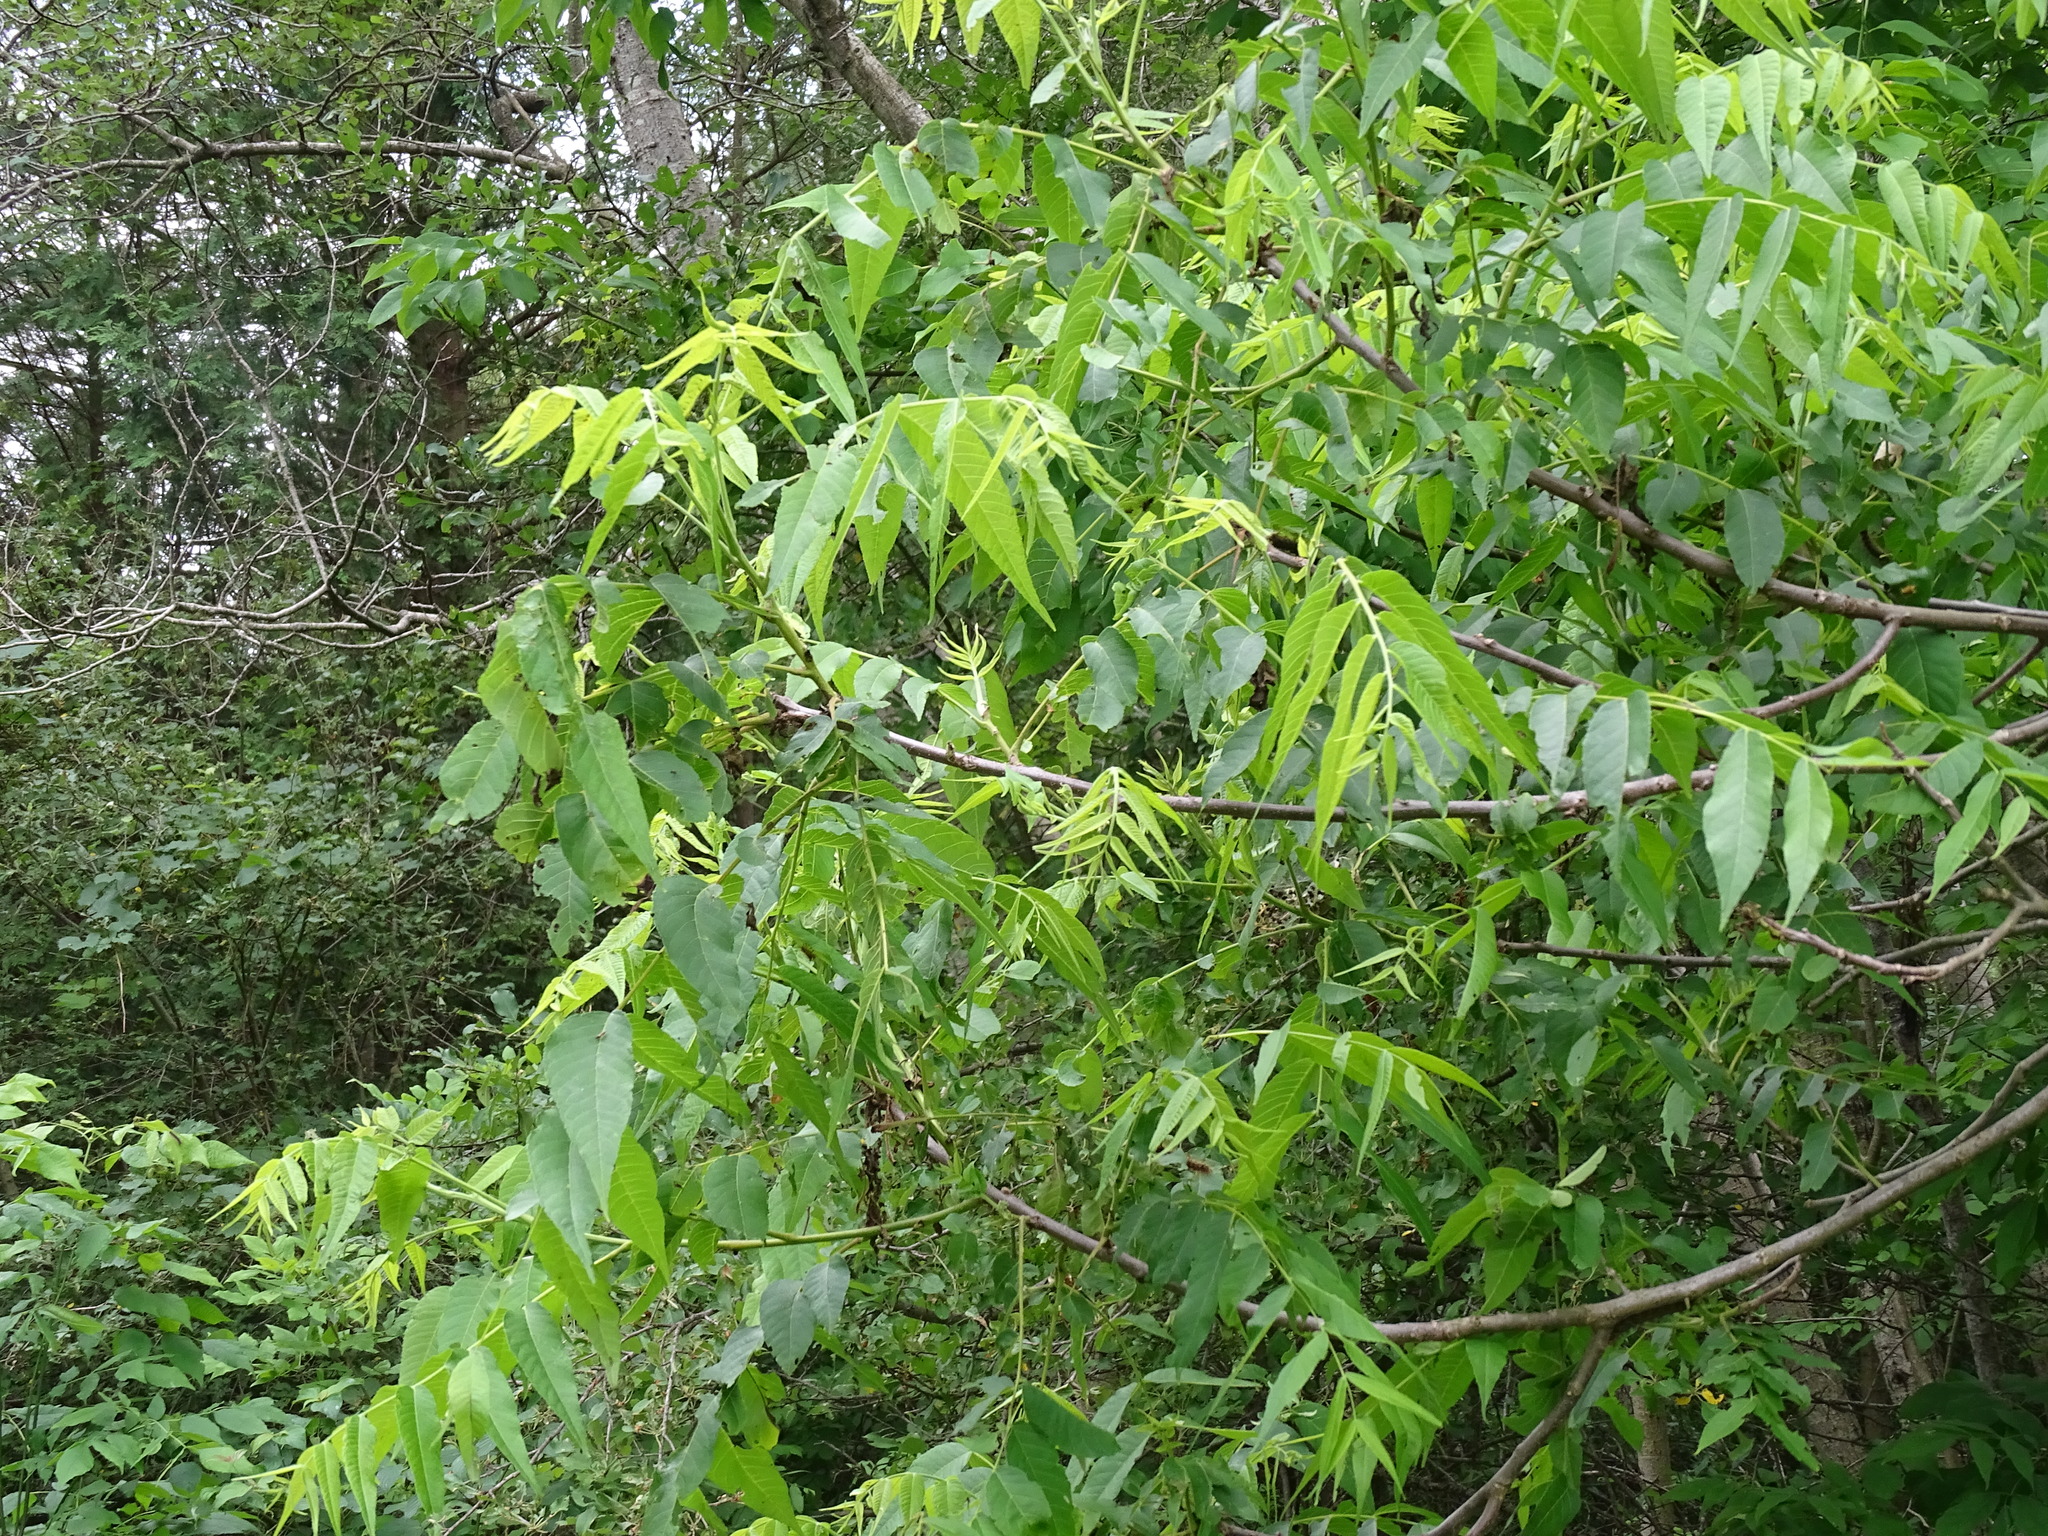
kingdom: Plantae
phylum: Tracheophyta
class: Magnoliopsida
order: Fagales
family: Juglandaceae
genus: Juglans
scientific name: Juglans nigra
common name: Black walnut
